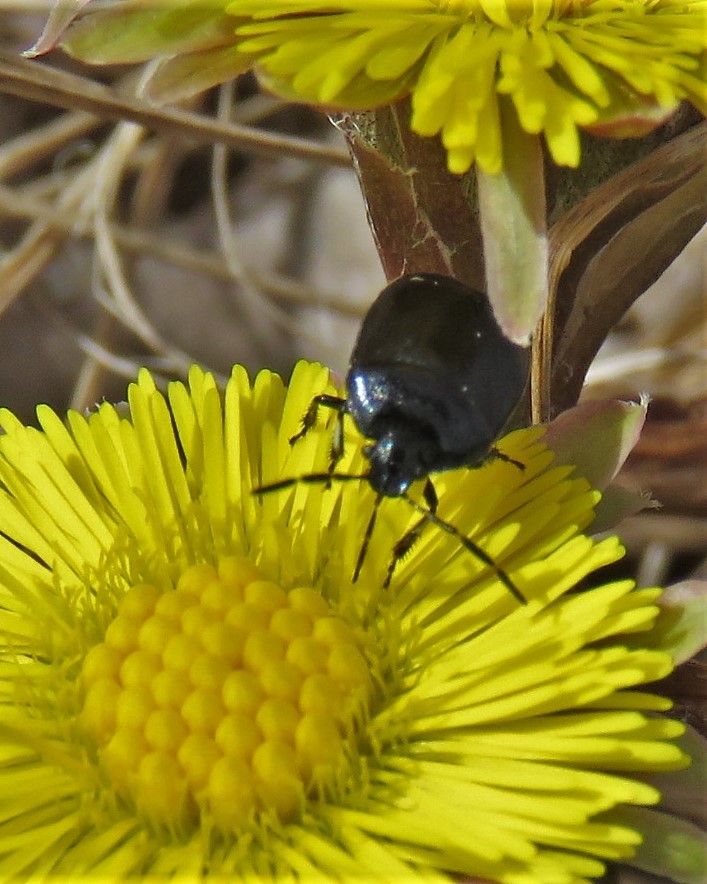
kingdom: Animalia
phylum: Arthropoda
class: Insecta
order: Hemiptera
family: Cydnidae
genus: Sehirus
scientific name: Sehirus cinctus
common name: White-margined burrower bug
